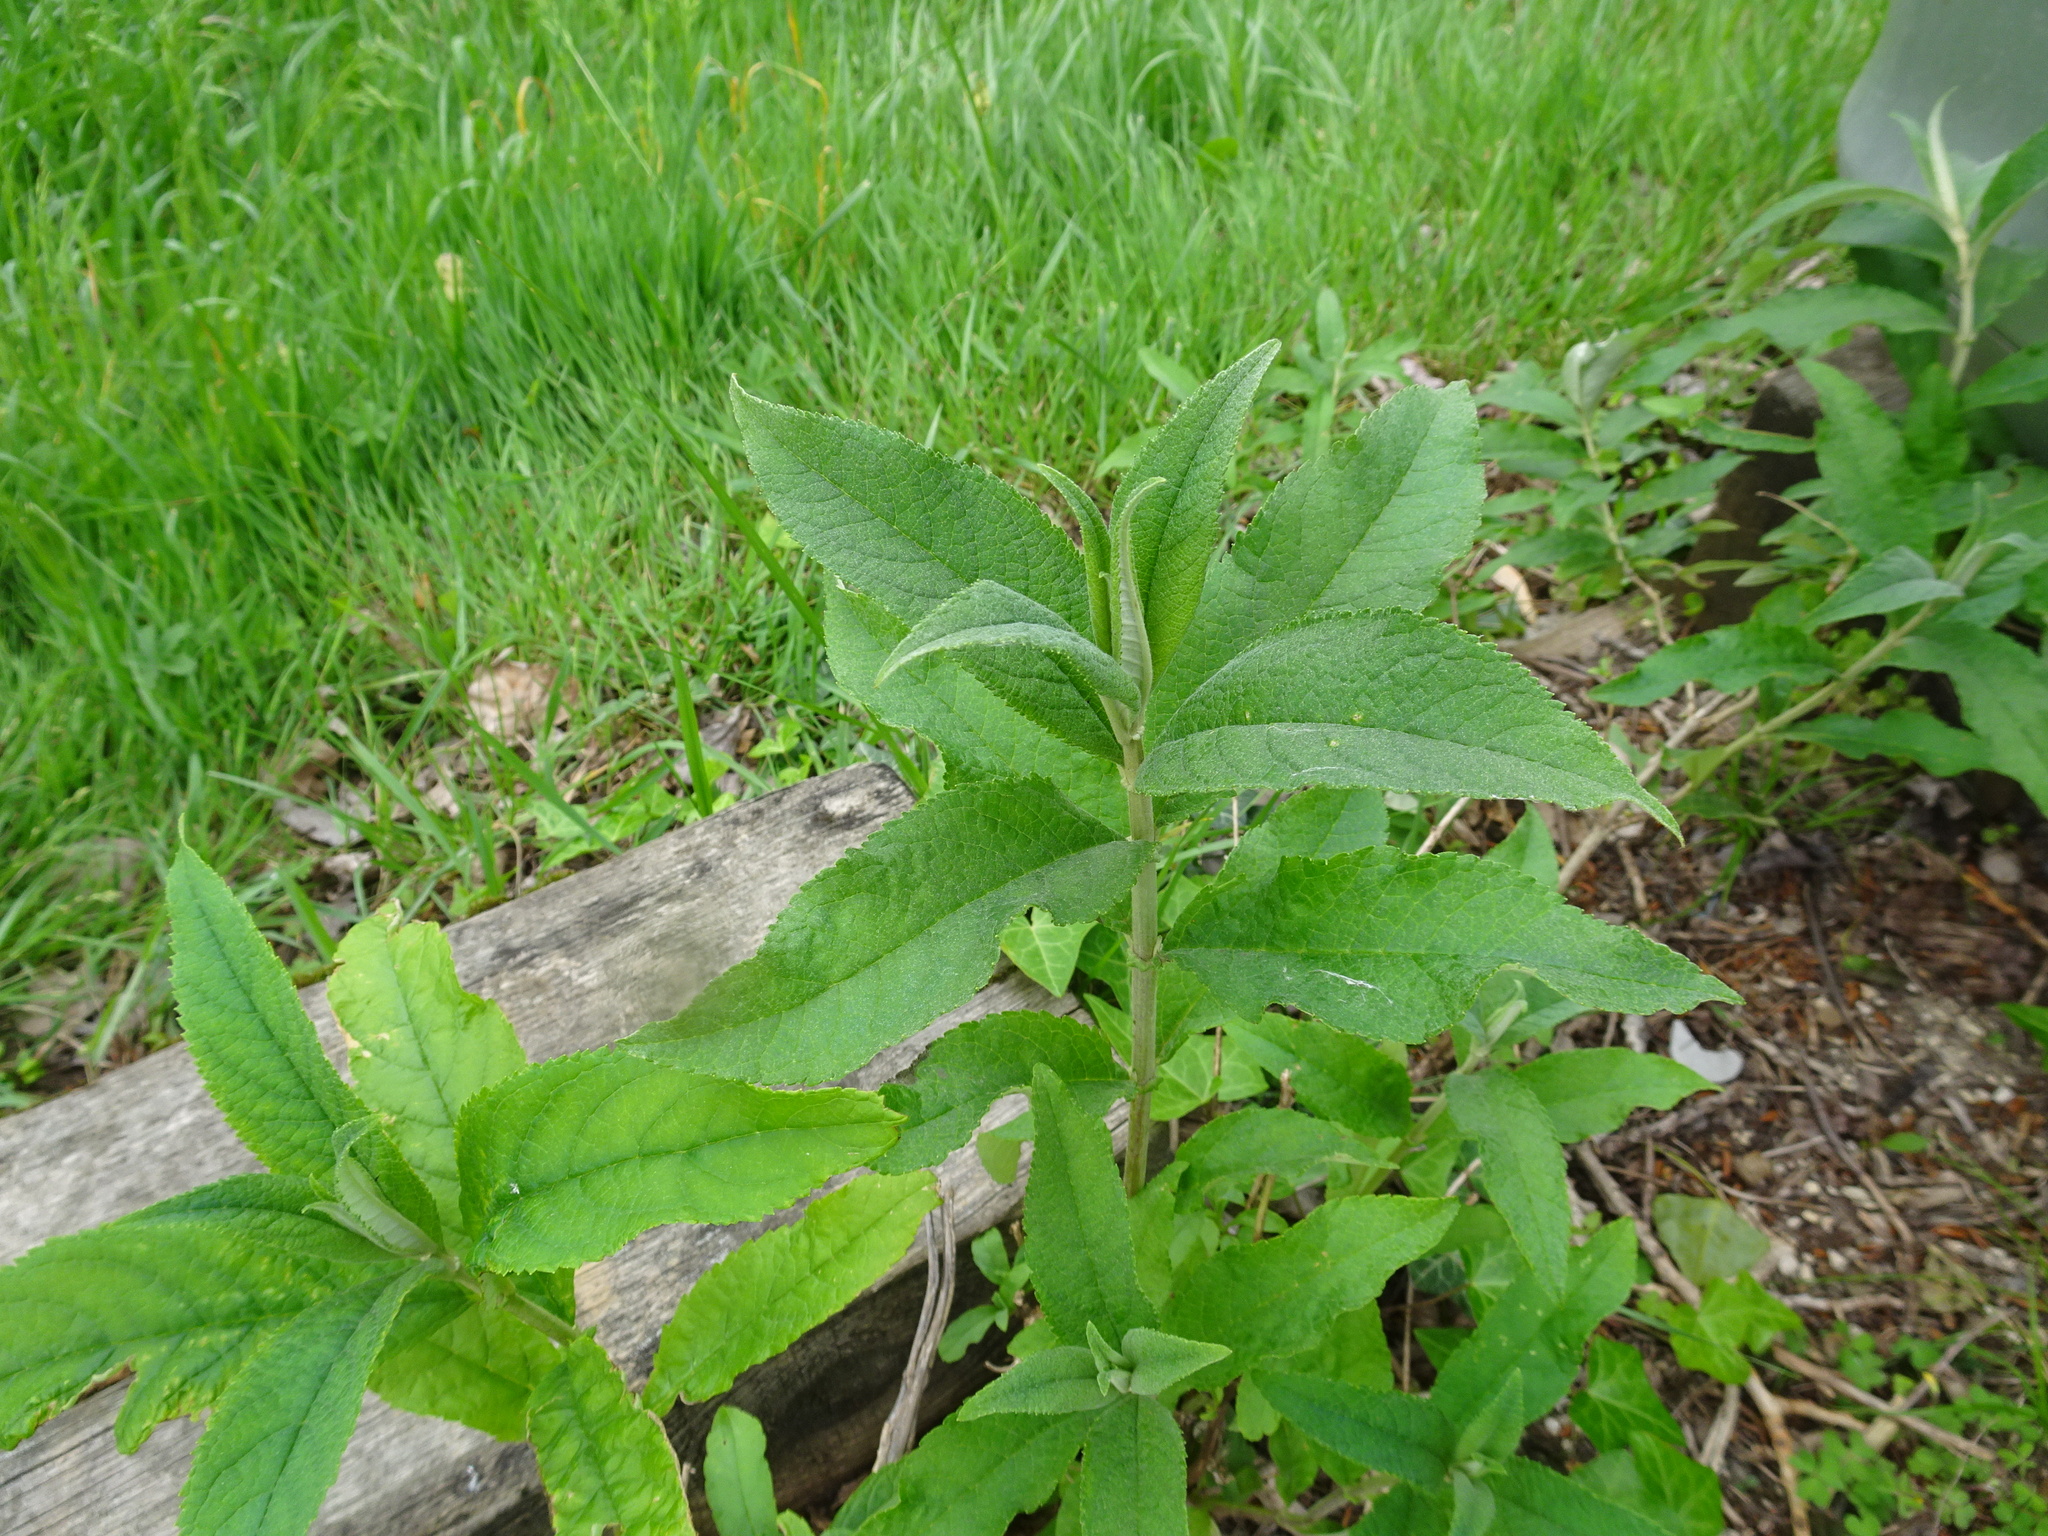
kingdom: Plantae
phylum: Tracheophyta
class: Magnoliopsida
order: Lamiales
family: Scrophulariaceae
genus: Buddleja
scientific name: Buddleja davidii
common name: Butterfly-bush
